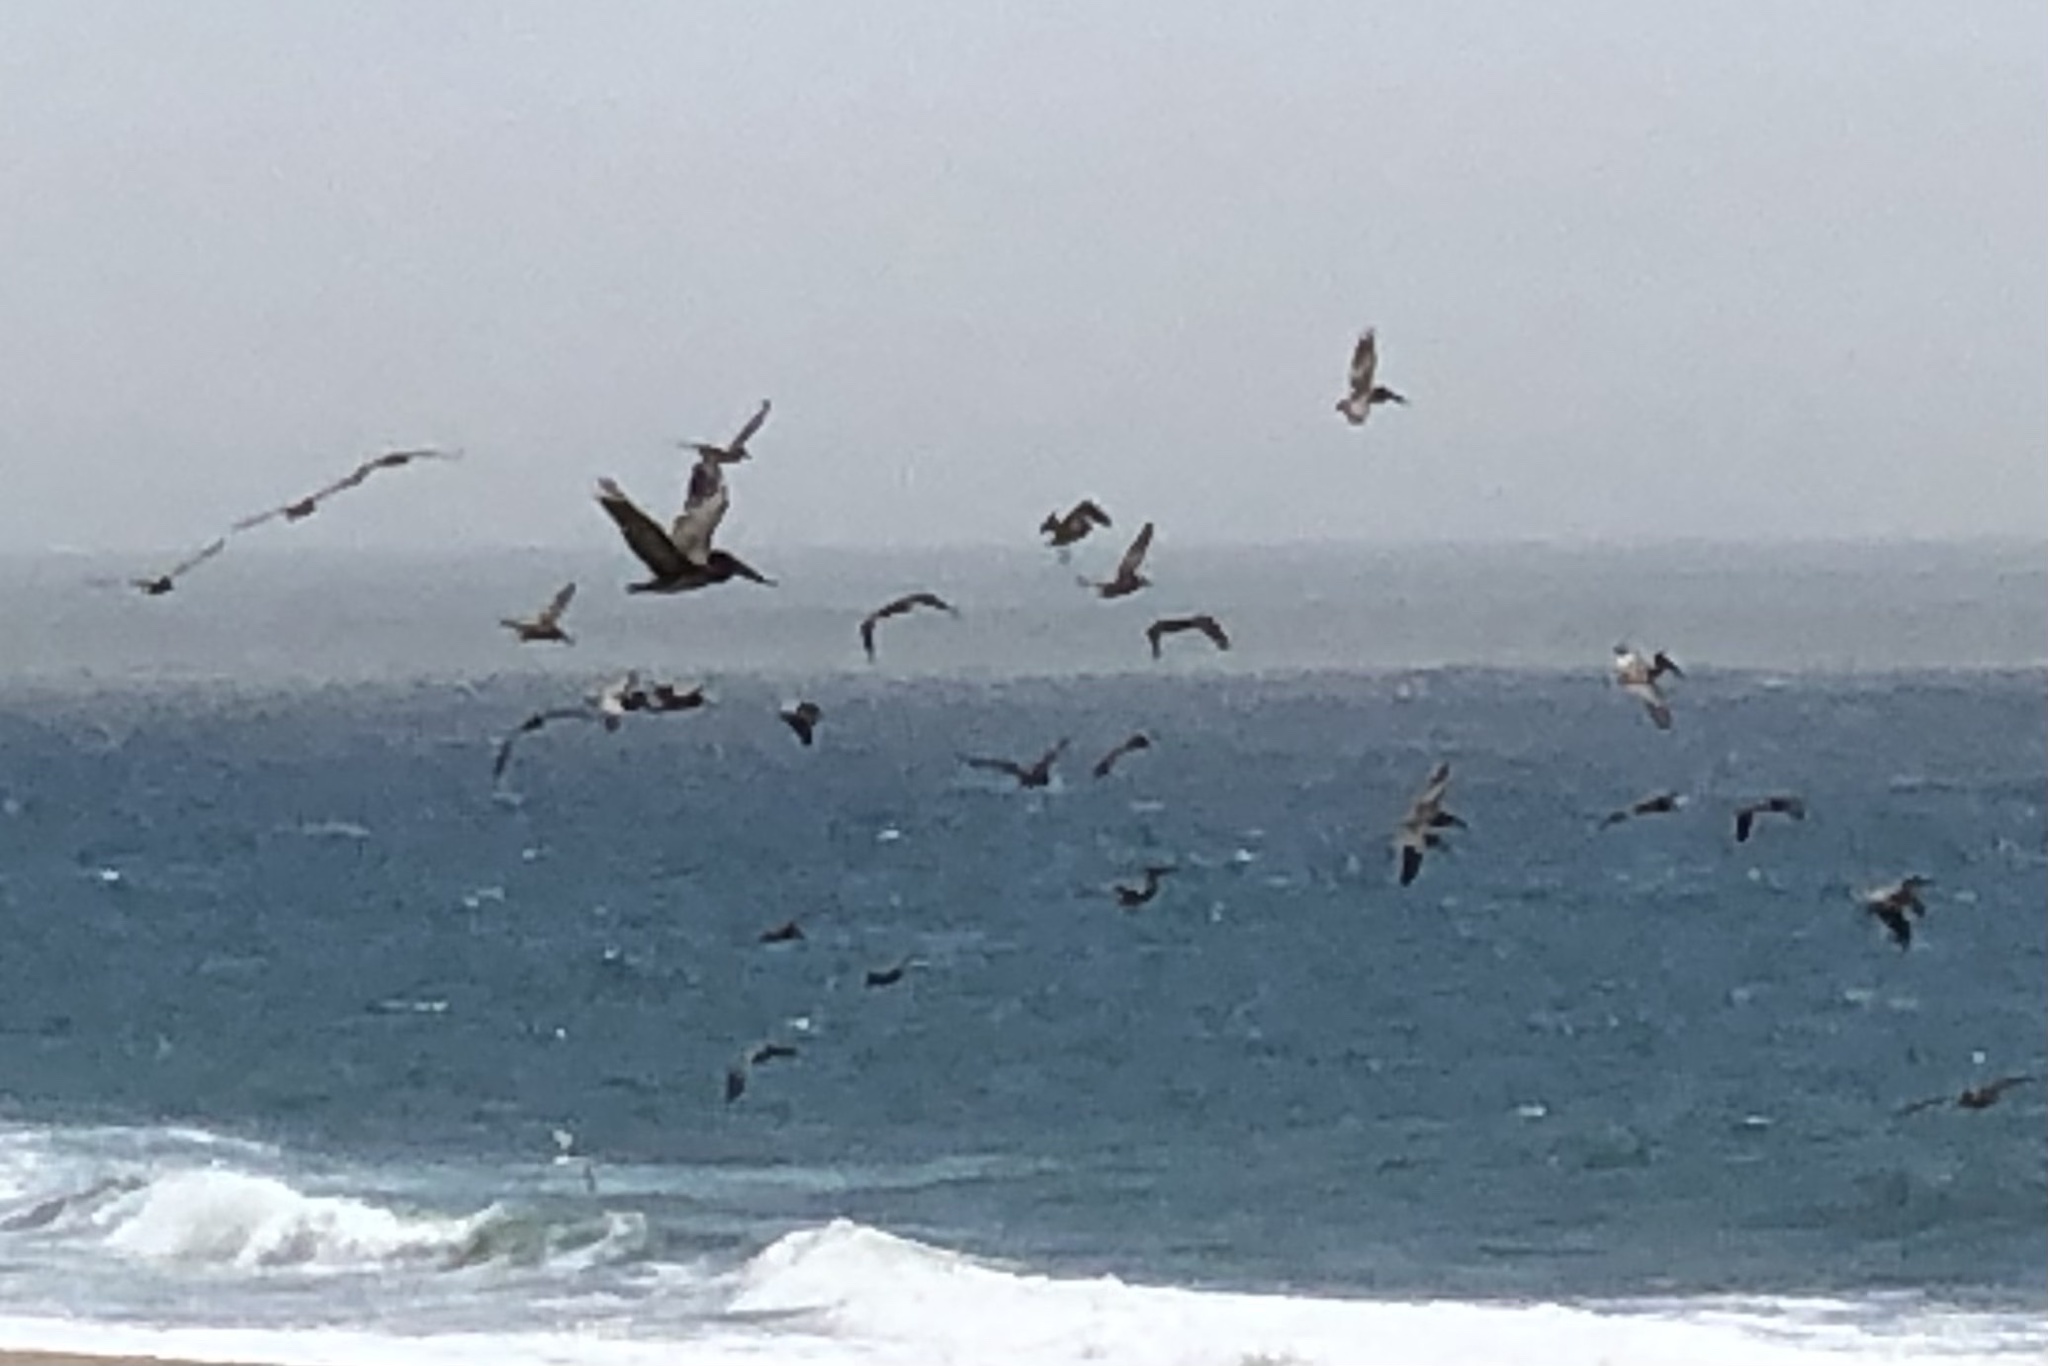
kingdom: Animalia
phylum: Chordata
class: Aves
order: Pelecaniformes
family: Pelecanidae
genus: Pelecanus
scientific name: Pelecanus occidentalis
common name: Brown pelican
